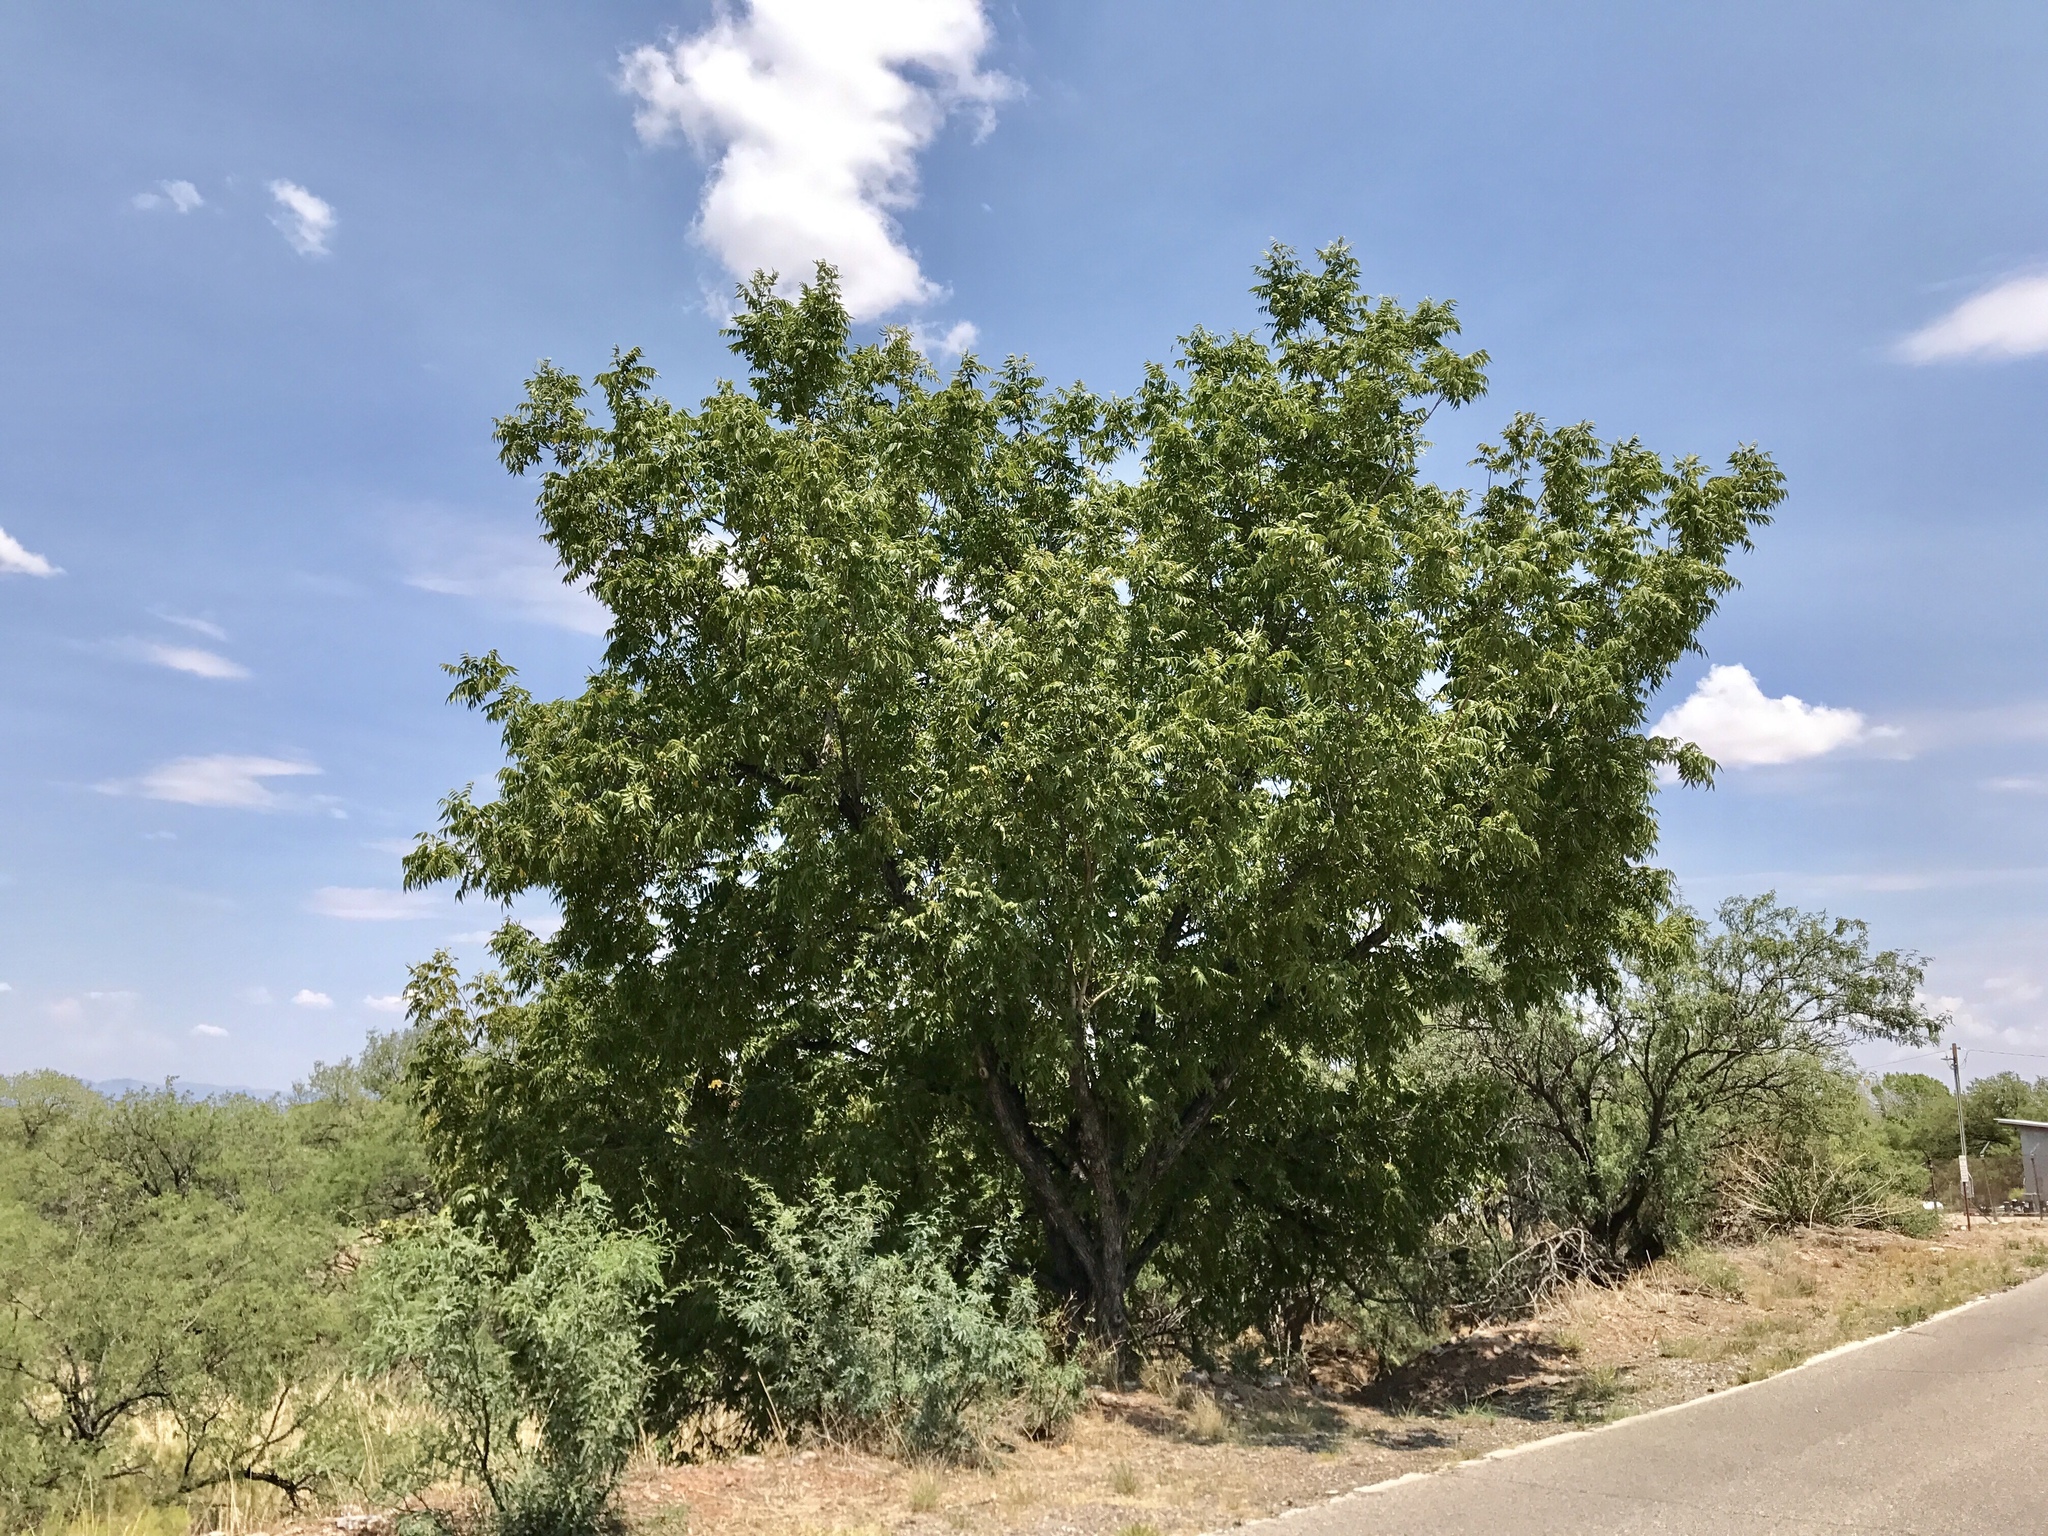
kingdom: Plantae
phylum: Tracheophyta
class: Magnoliopsida
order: Fagales
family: Juglandaceae
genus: Juglans
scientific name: Juglans major
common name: Arizona walnut
